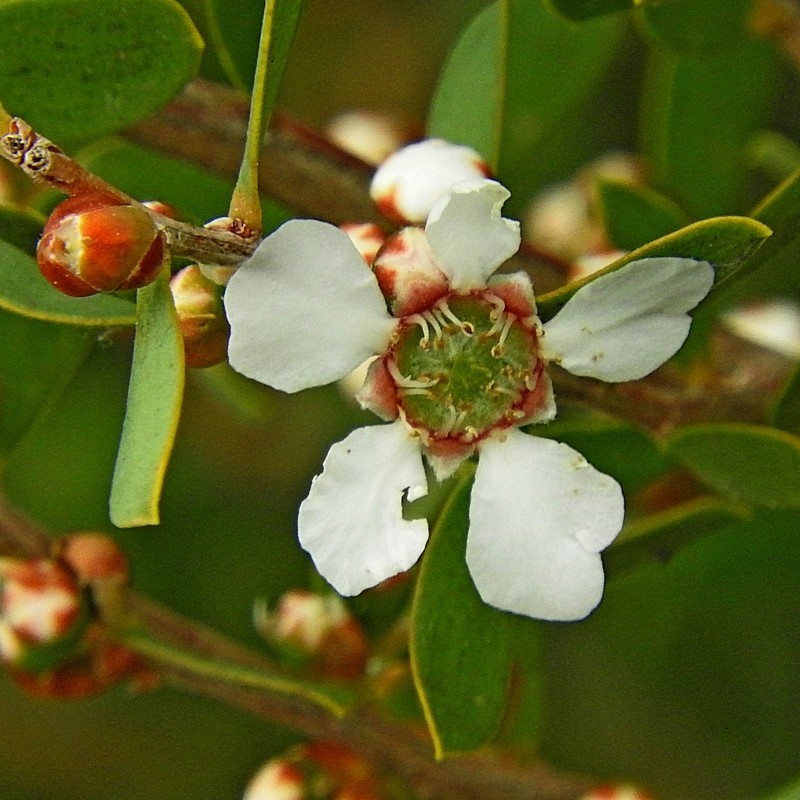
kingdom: Plantae
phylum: Tracheophyta
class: Magnoliopsida
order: Myrtales
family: Myrtaceae
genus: Leptospermum
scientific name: Leptospermum laevigatum
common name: Australian teatree
